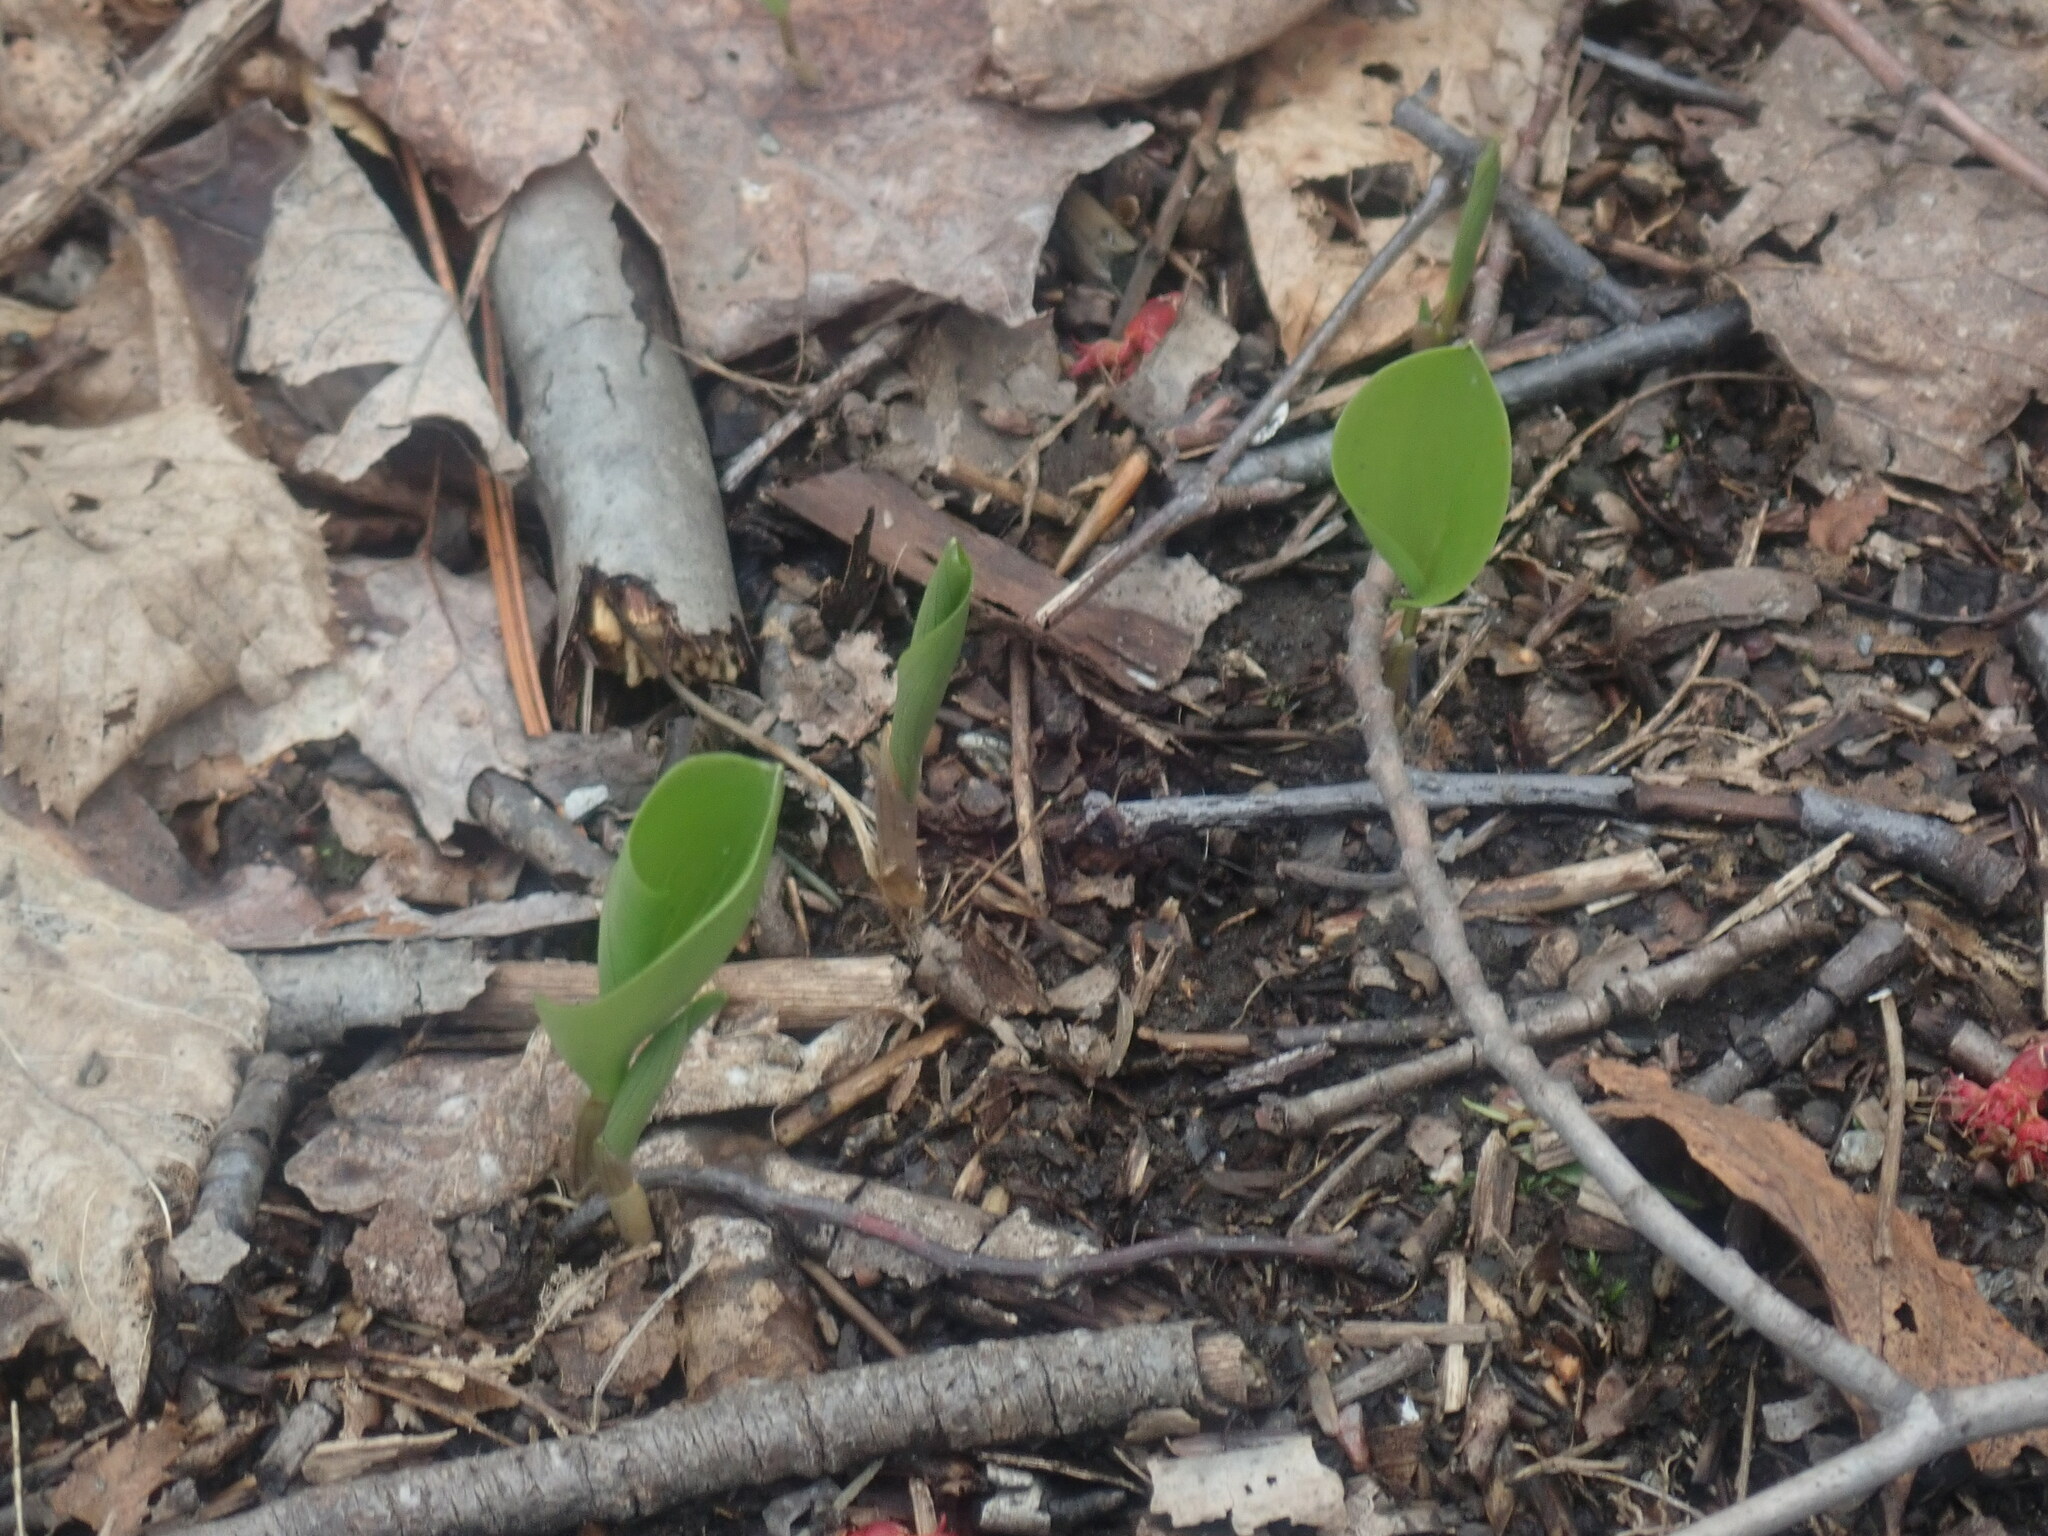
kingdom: Plantae
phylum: Tracheophyta
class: Liliopsida
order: Asparagales
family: Asparagaceae
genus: Maianthemum
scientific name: Maianthemum canadense
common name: False lily-of-the-valley
